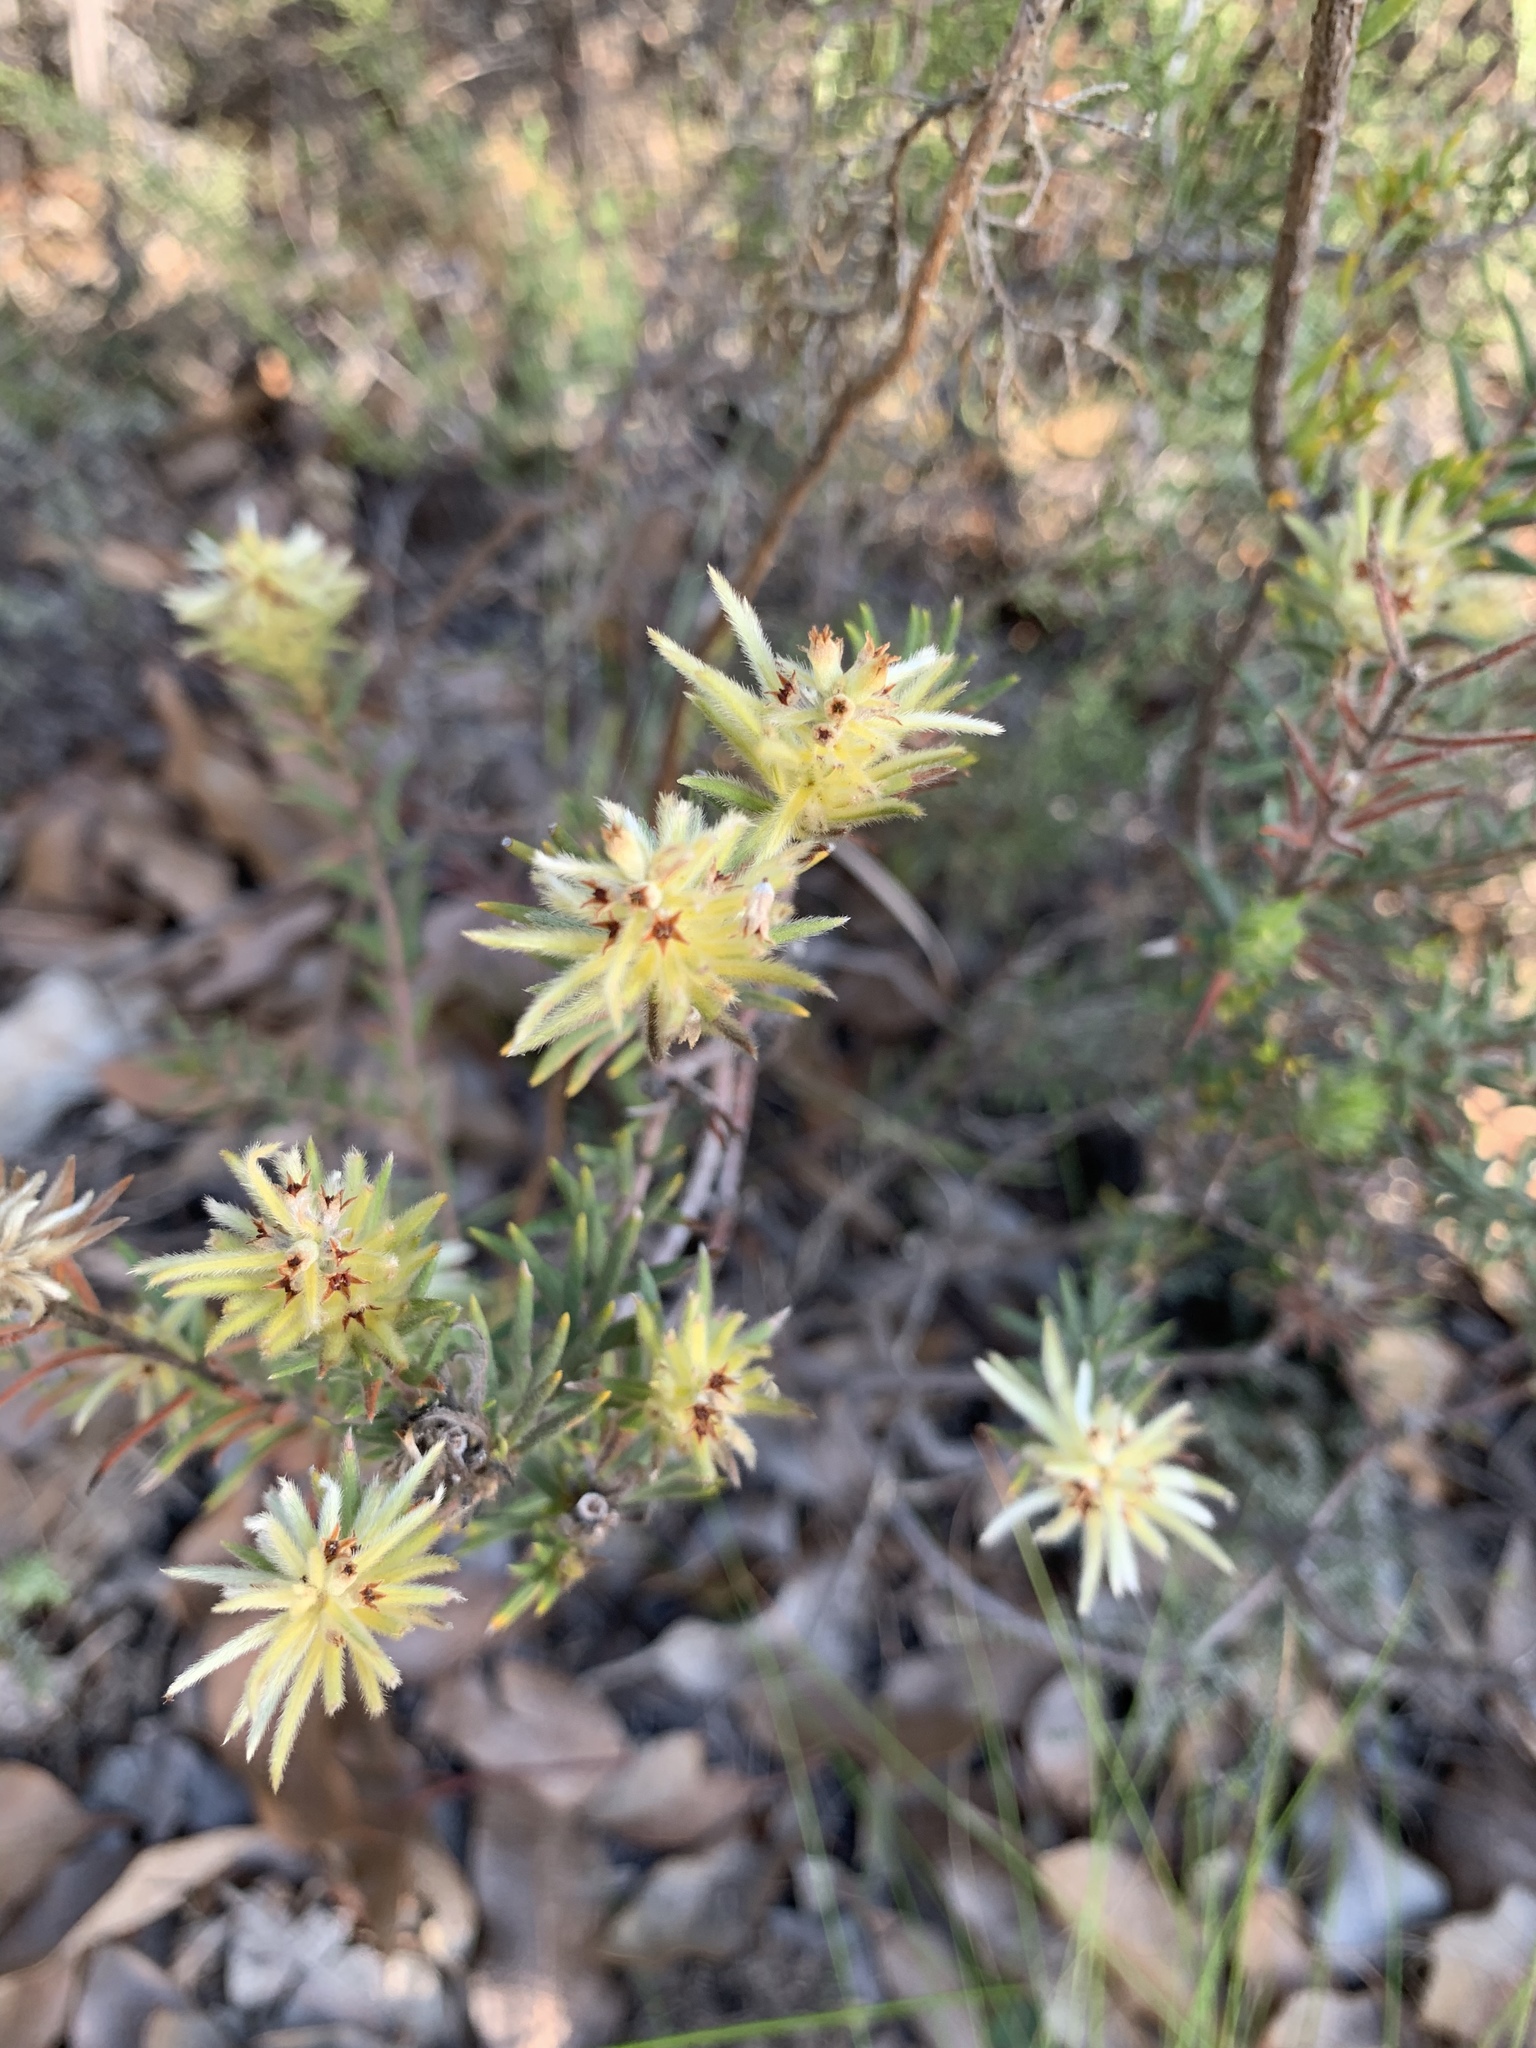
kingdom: Plantae
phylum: Tracheophyta
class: Magnoliopsida
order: Rosales
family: Rhamnaceae
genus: Phylica
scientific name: Phylica plumosa
